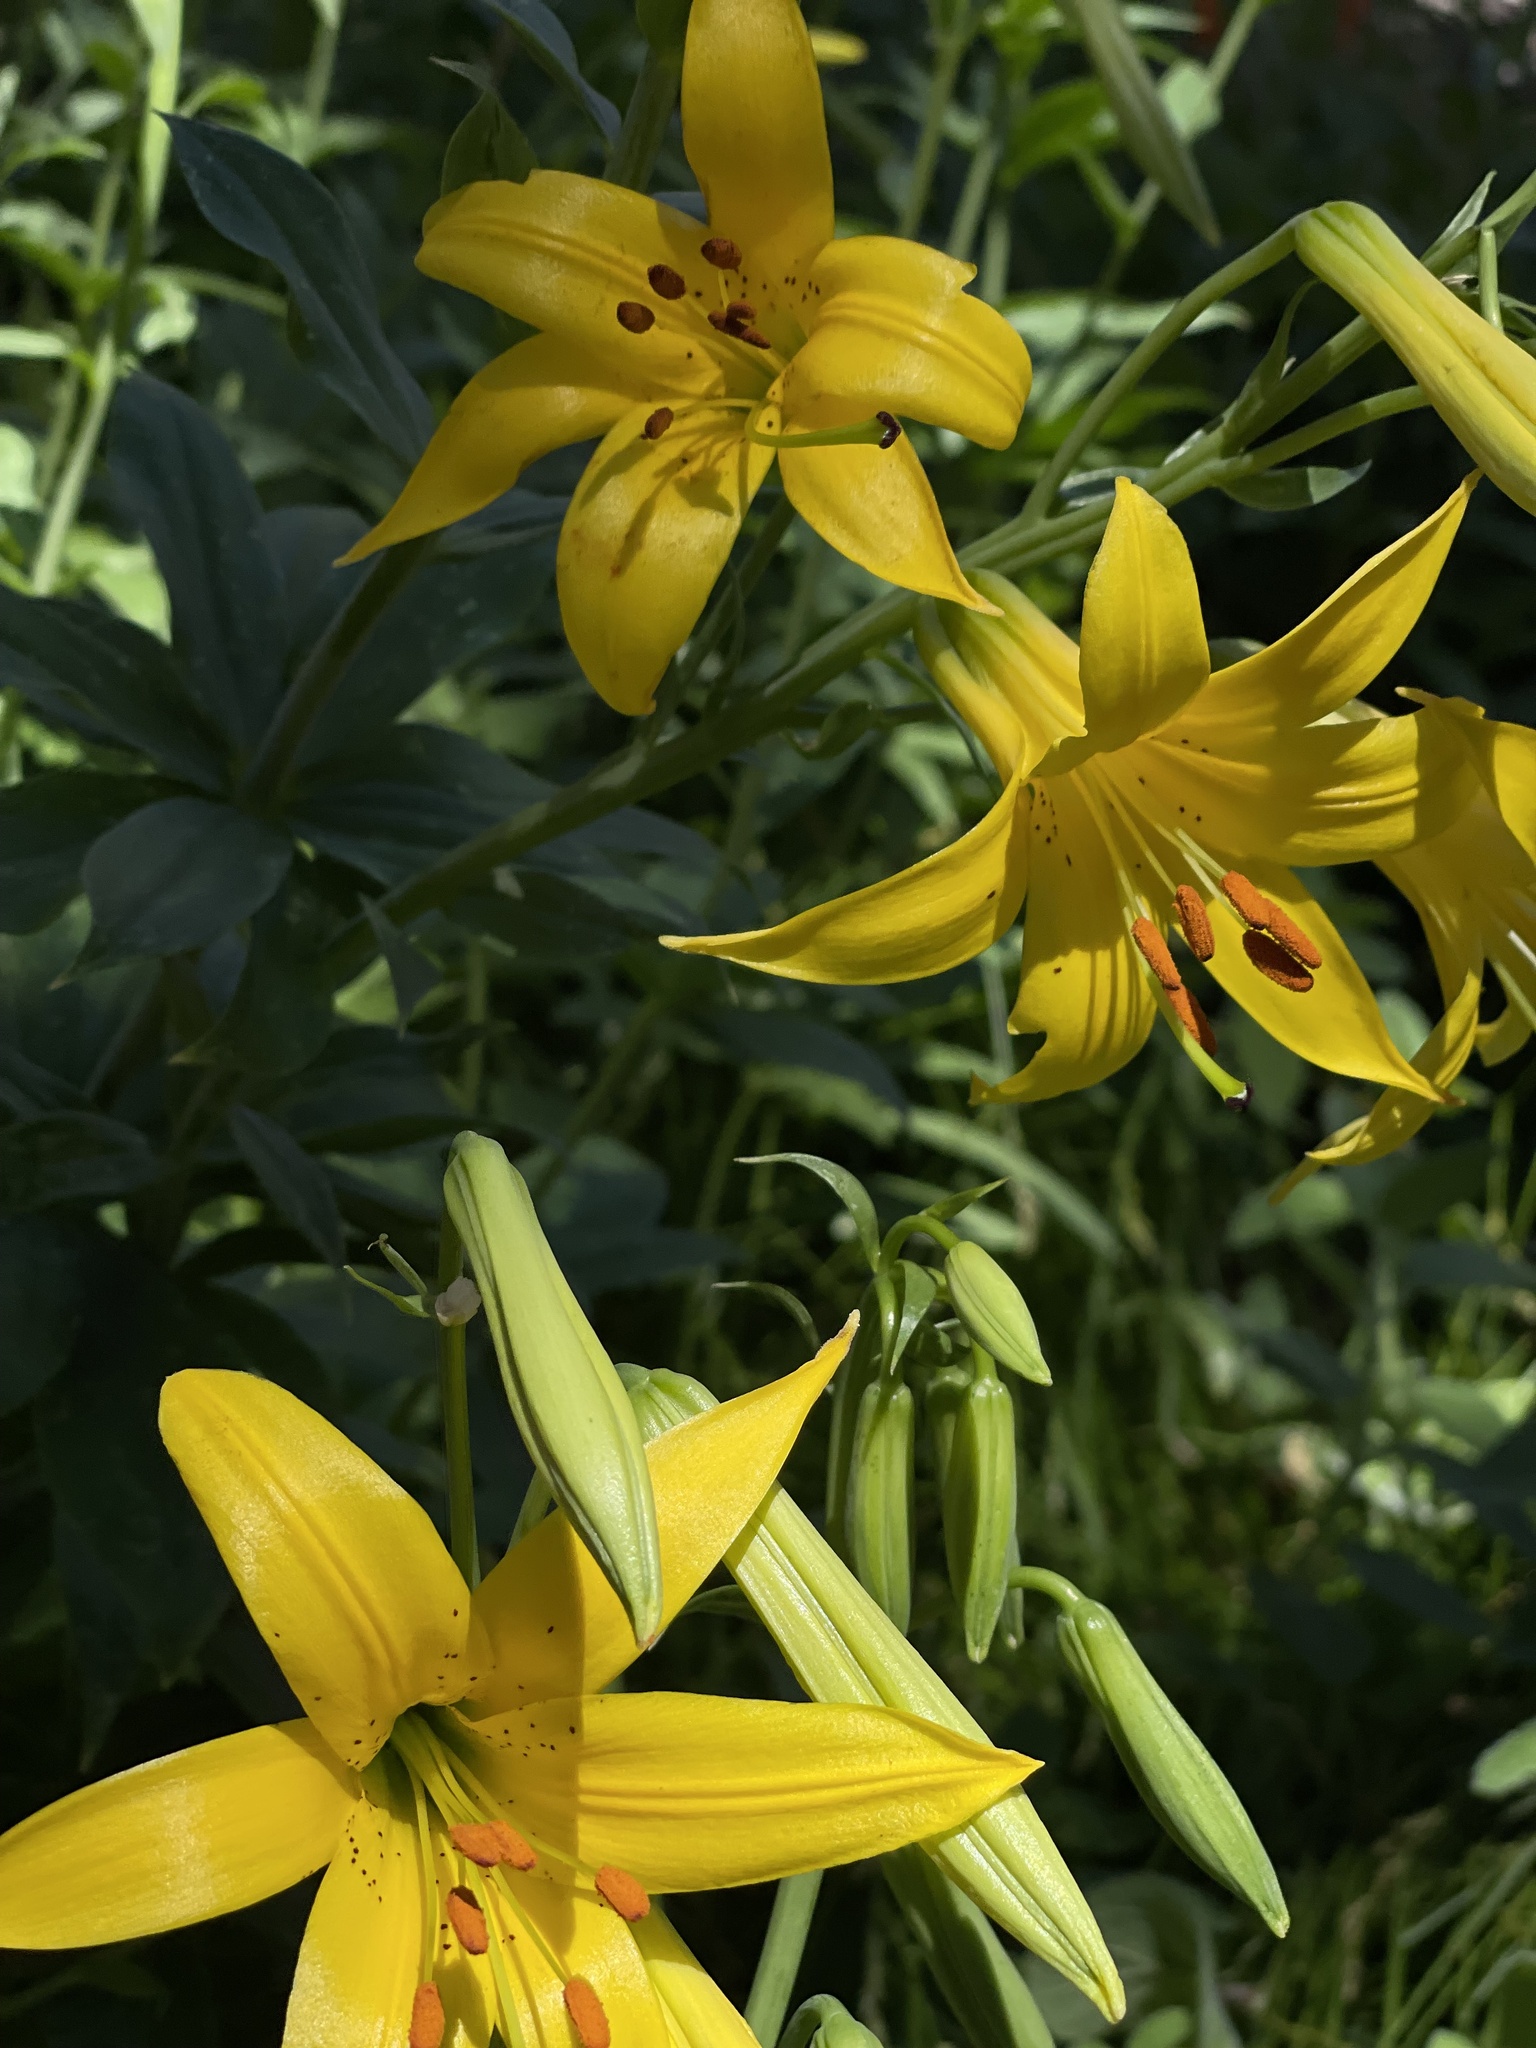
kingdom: Plantae
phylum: Tracheophyta
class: Liliopsida
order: Liliales
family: Liliaceae
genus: Lilium
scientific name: Lilium parryi
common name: Lemon lily
